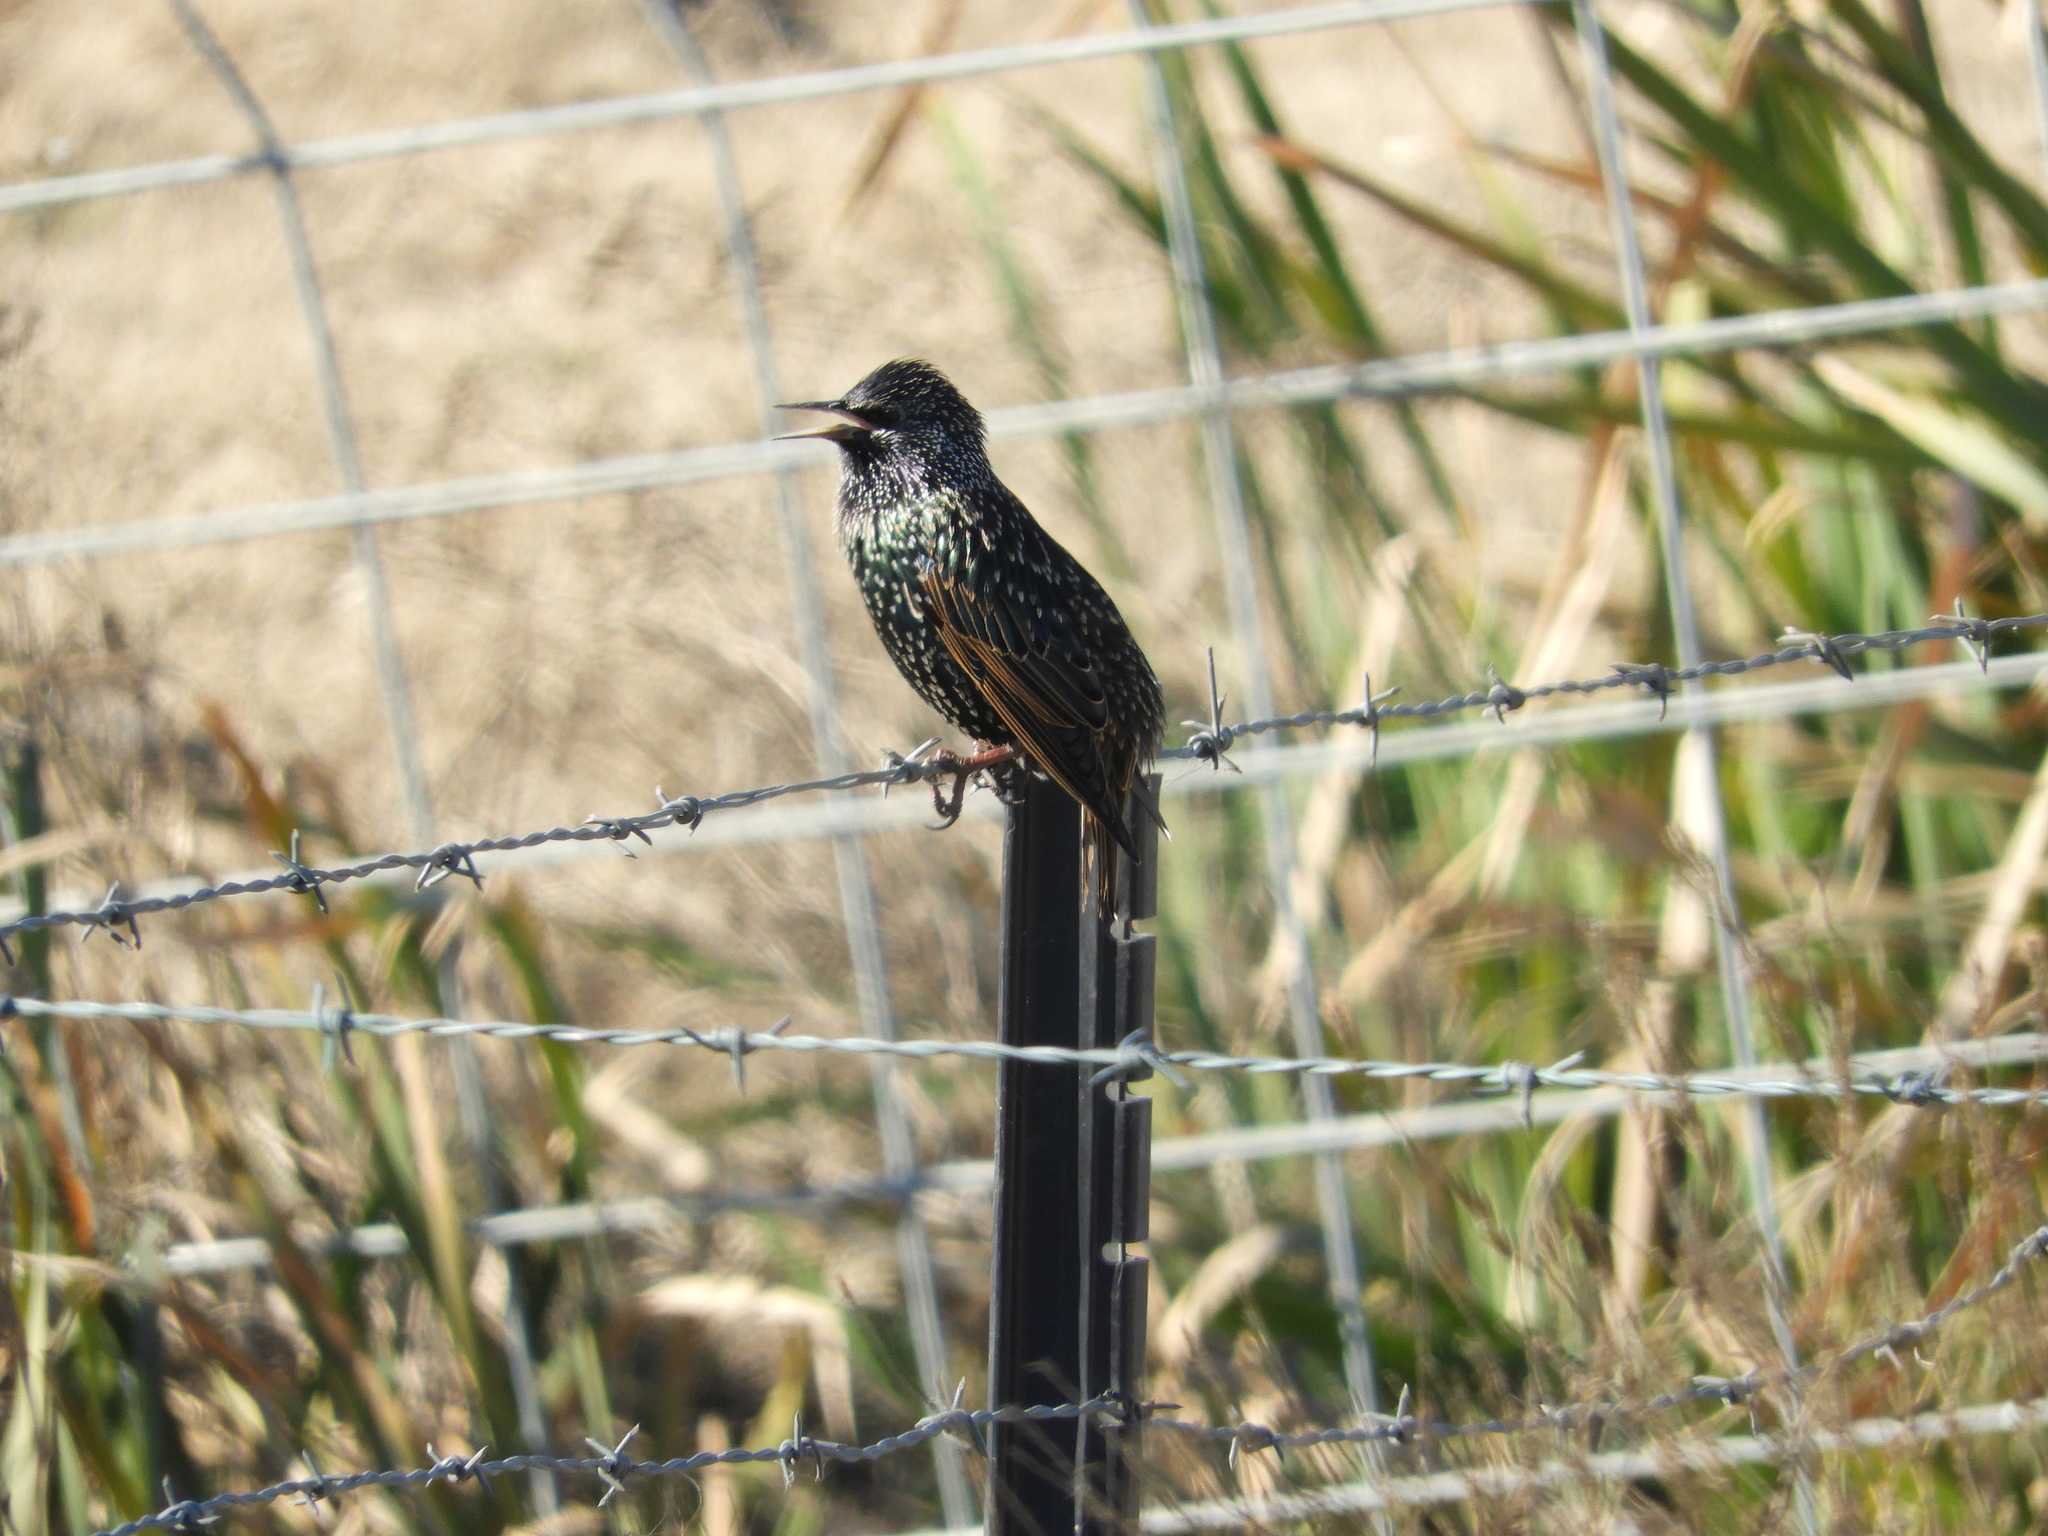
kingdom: Animalia
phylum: Chordata
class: Aves
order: Passeriformes
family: Sturnidae
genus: Sturnus
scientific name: Sturnus vulgaris
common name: Common starling
